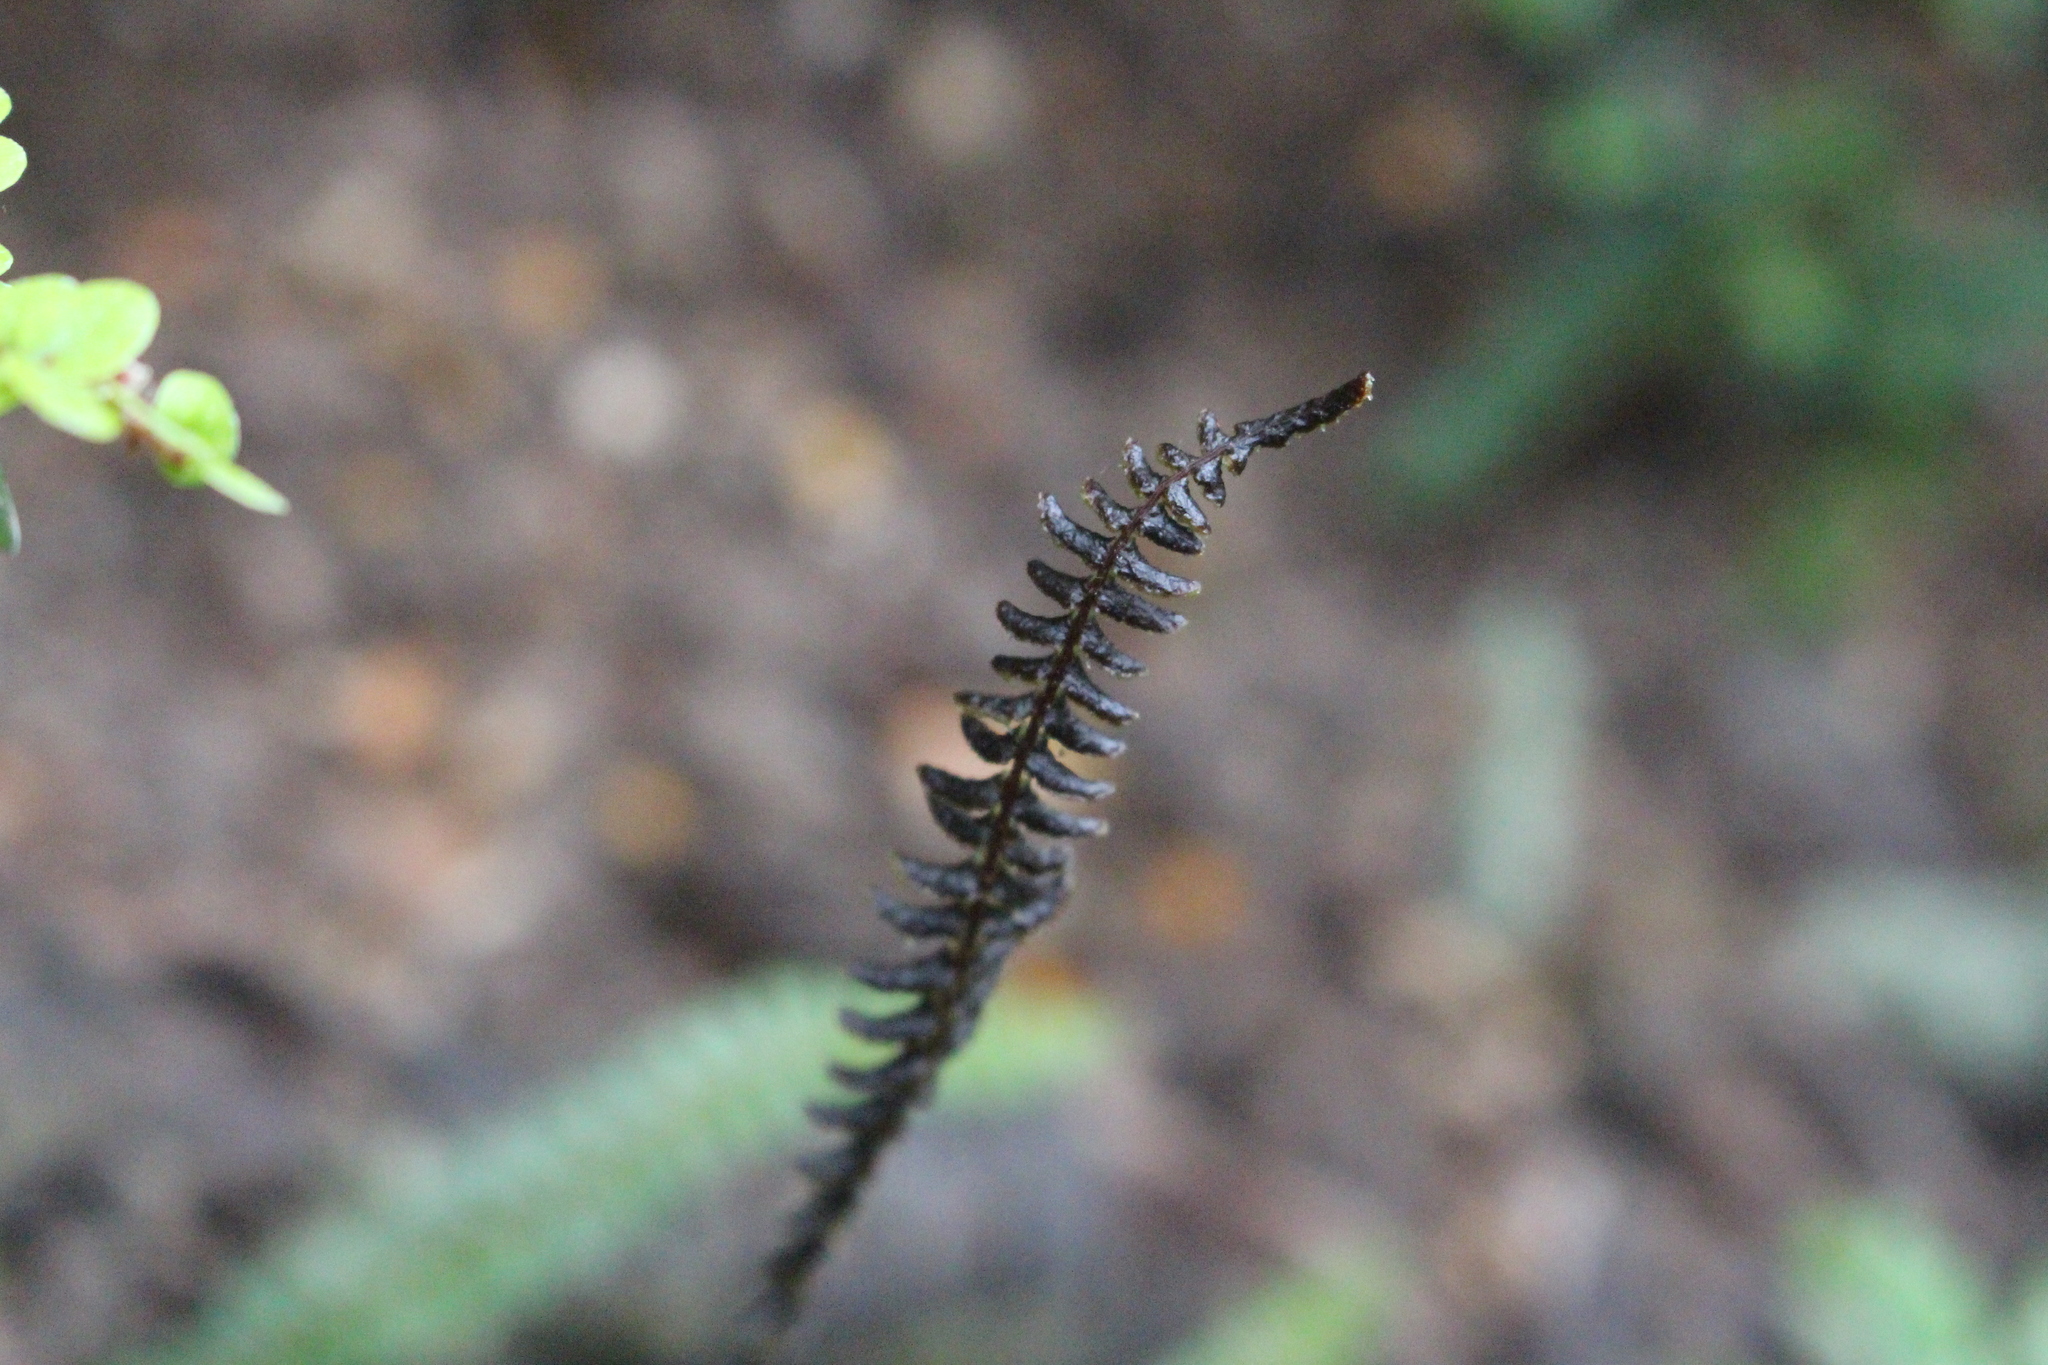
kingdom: Plantae
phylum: Tracheophyta
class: Polypodiopsida
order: Polypodiales
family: Blechnaceae
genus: Austroblechnum
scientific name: Austroblechnum penna-marina
